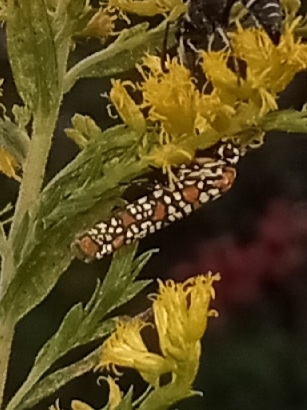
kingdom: Animalia
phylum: Arthropoda
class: Insecta
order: Lepidoptera
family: Attevidae
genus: Atteva
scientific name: Atteva punctella
